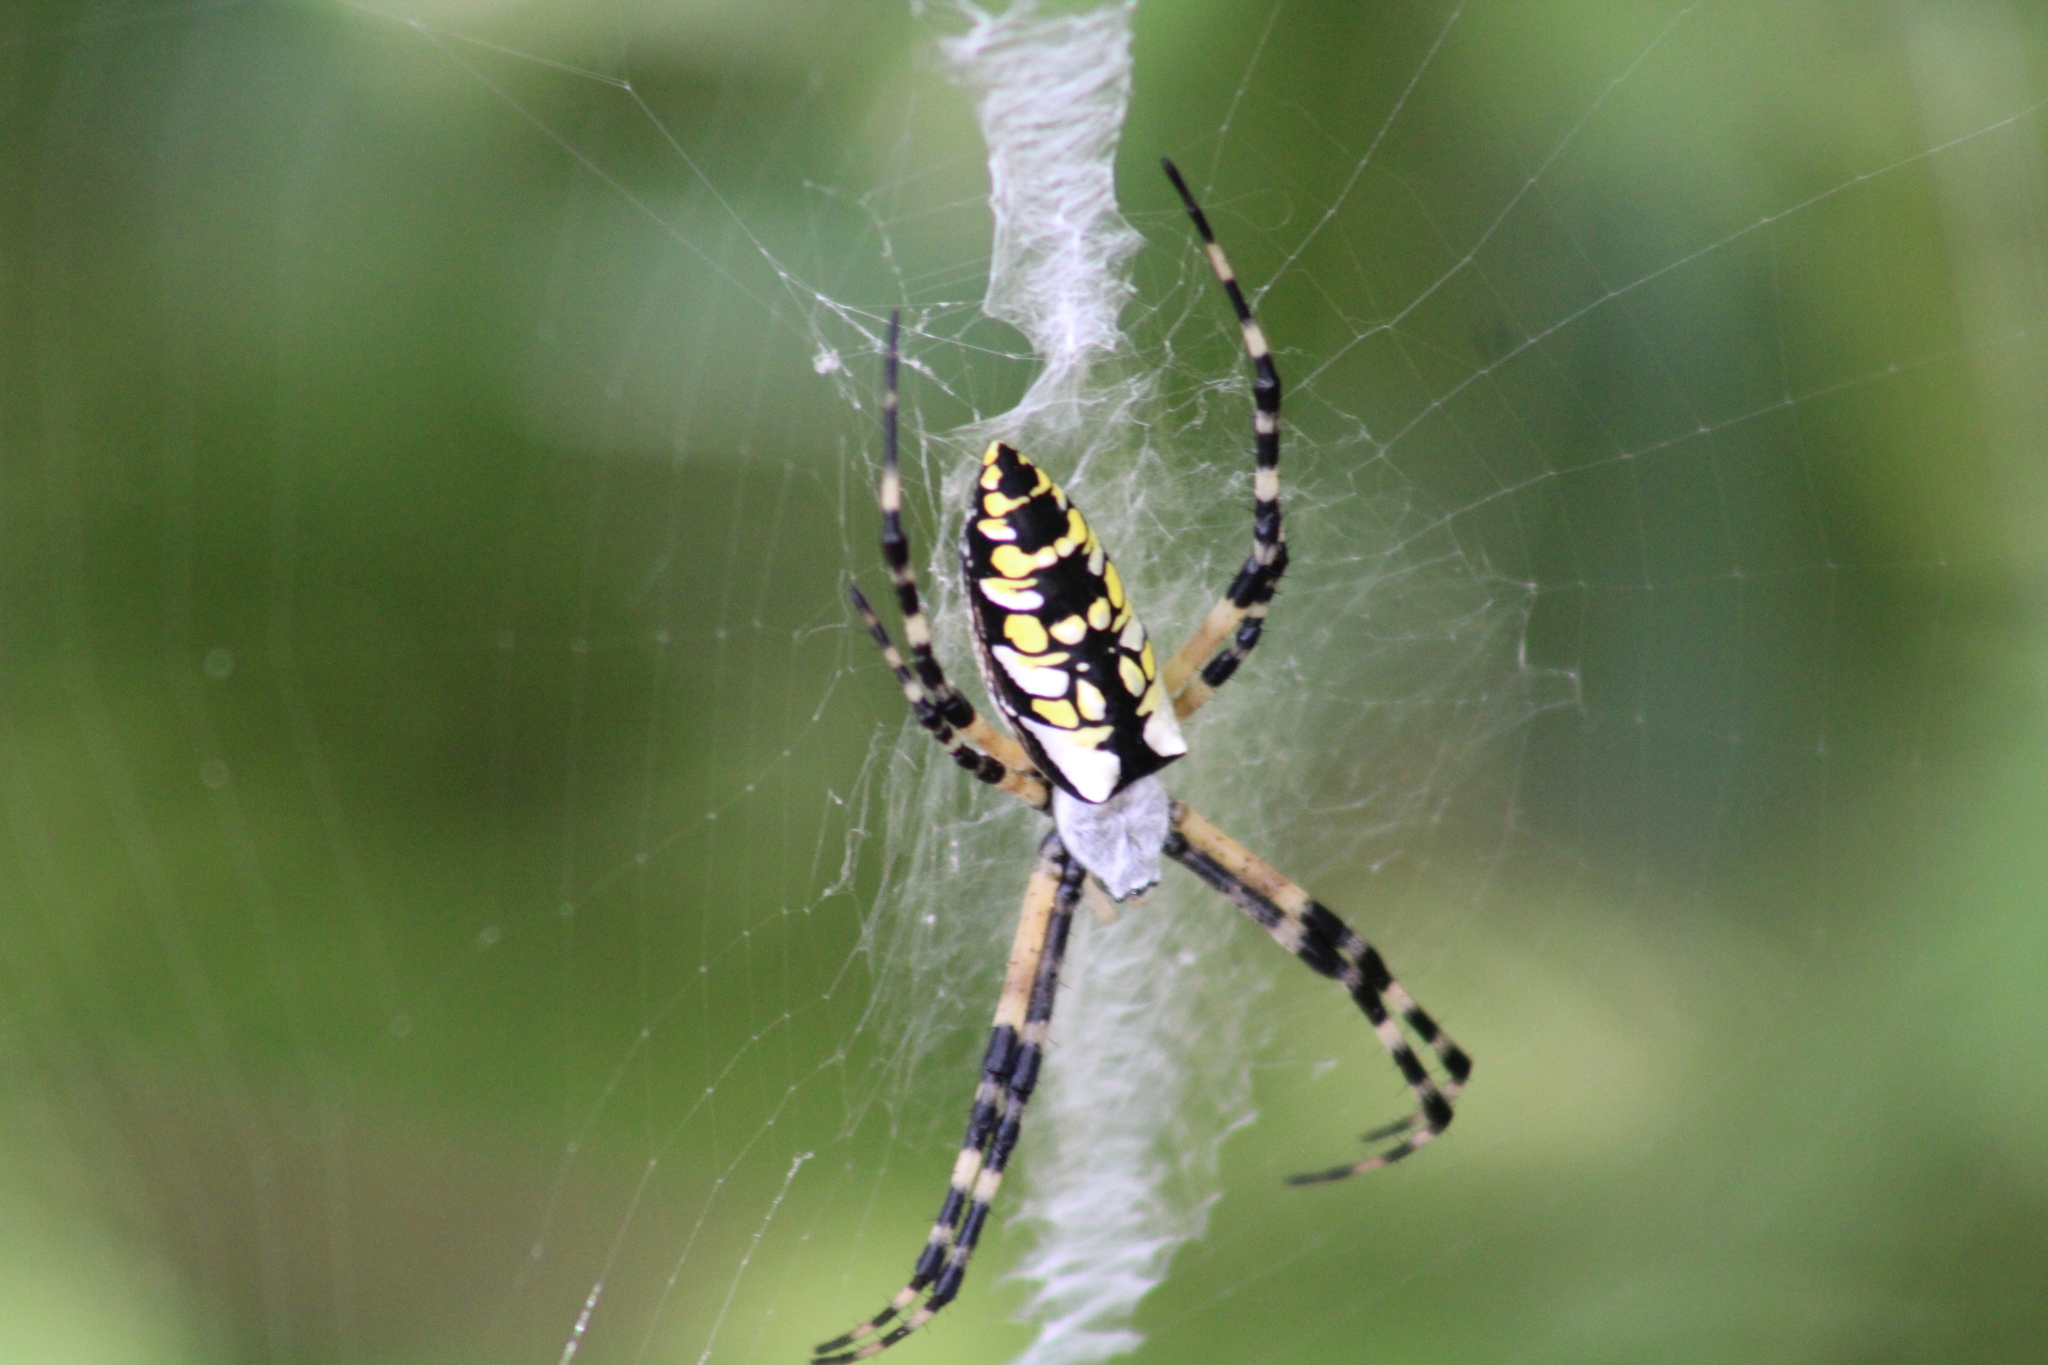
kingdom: Animalia
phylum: Arthropoda
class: Arachnida
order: Araneae
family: Araneidae
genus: Argiope
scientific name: Argiope aurantia
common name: Orb weavers
